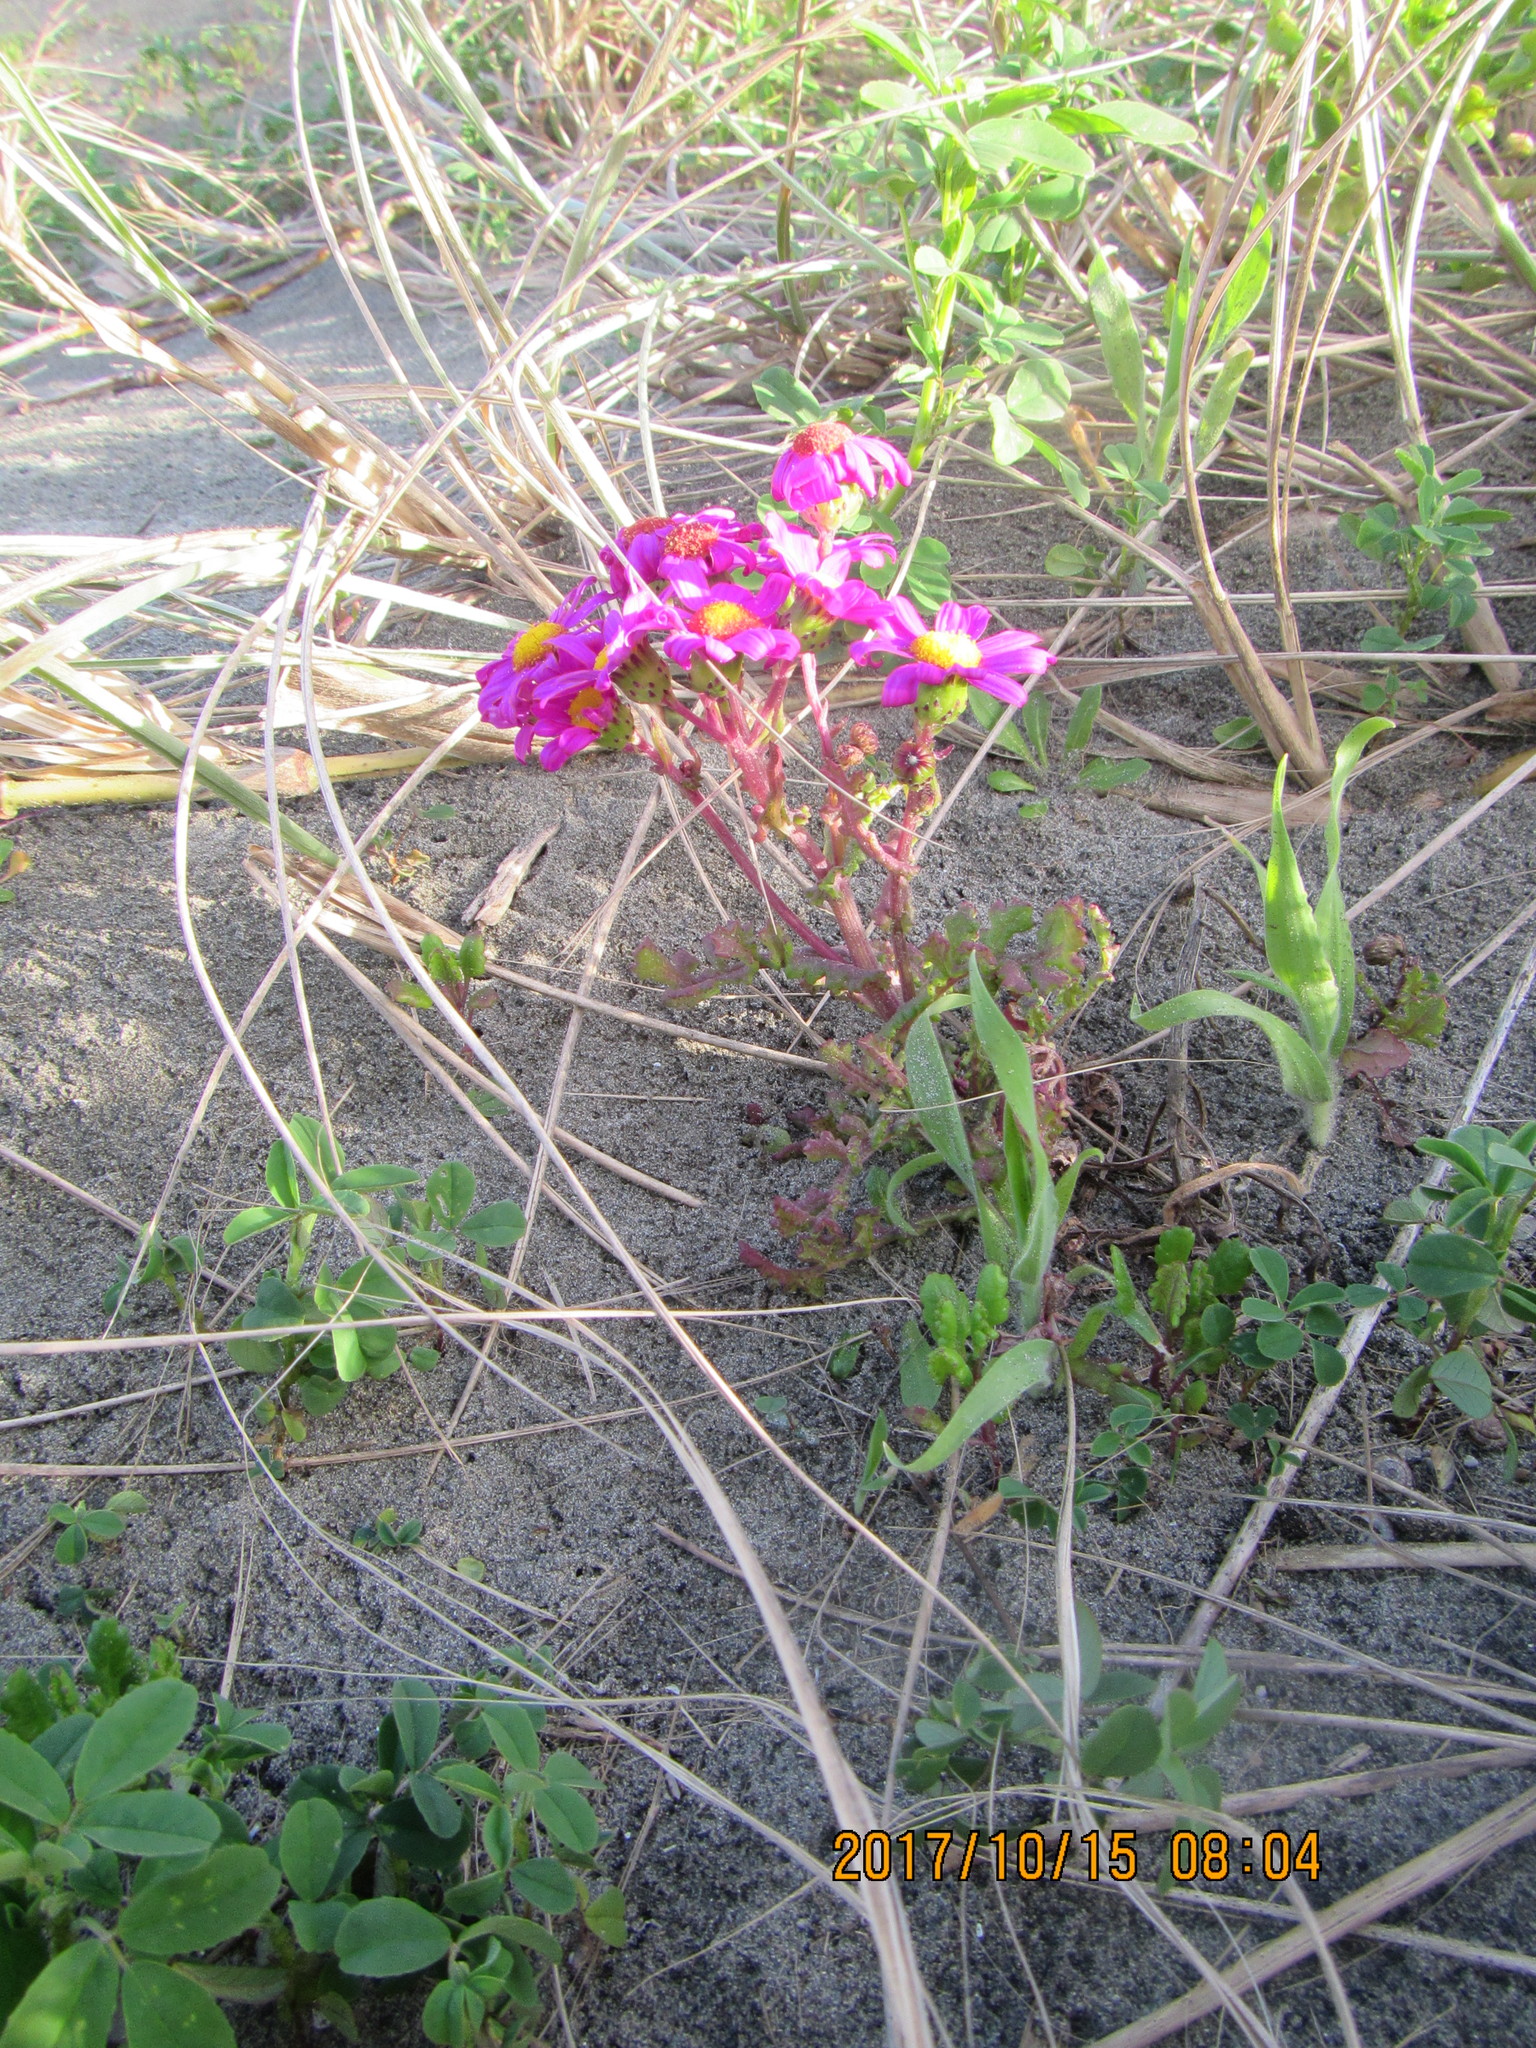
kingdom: Plantae
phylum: Tracheophyta
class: Magnoliopsida
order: Asterales
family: Asteraceae
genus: Senecio
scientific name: Senecio elegans
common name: Purple groundsel
